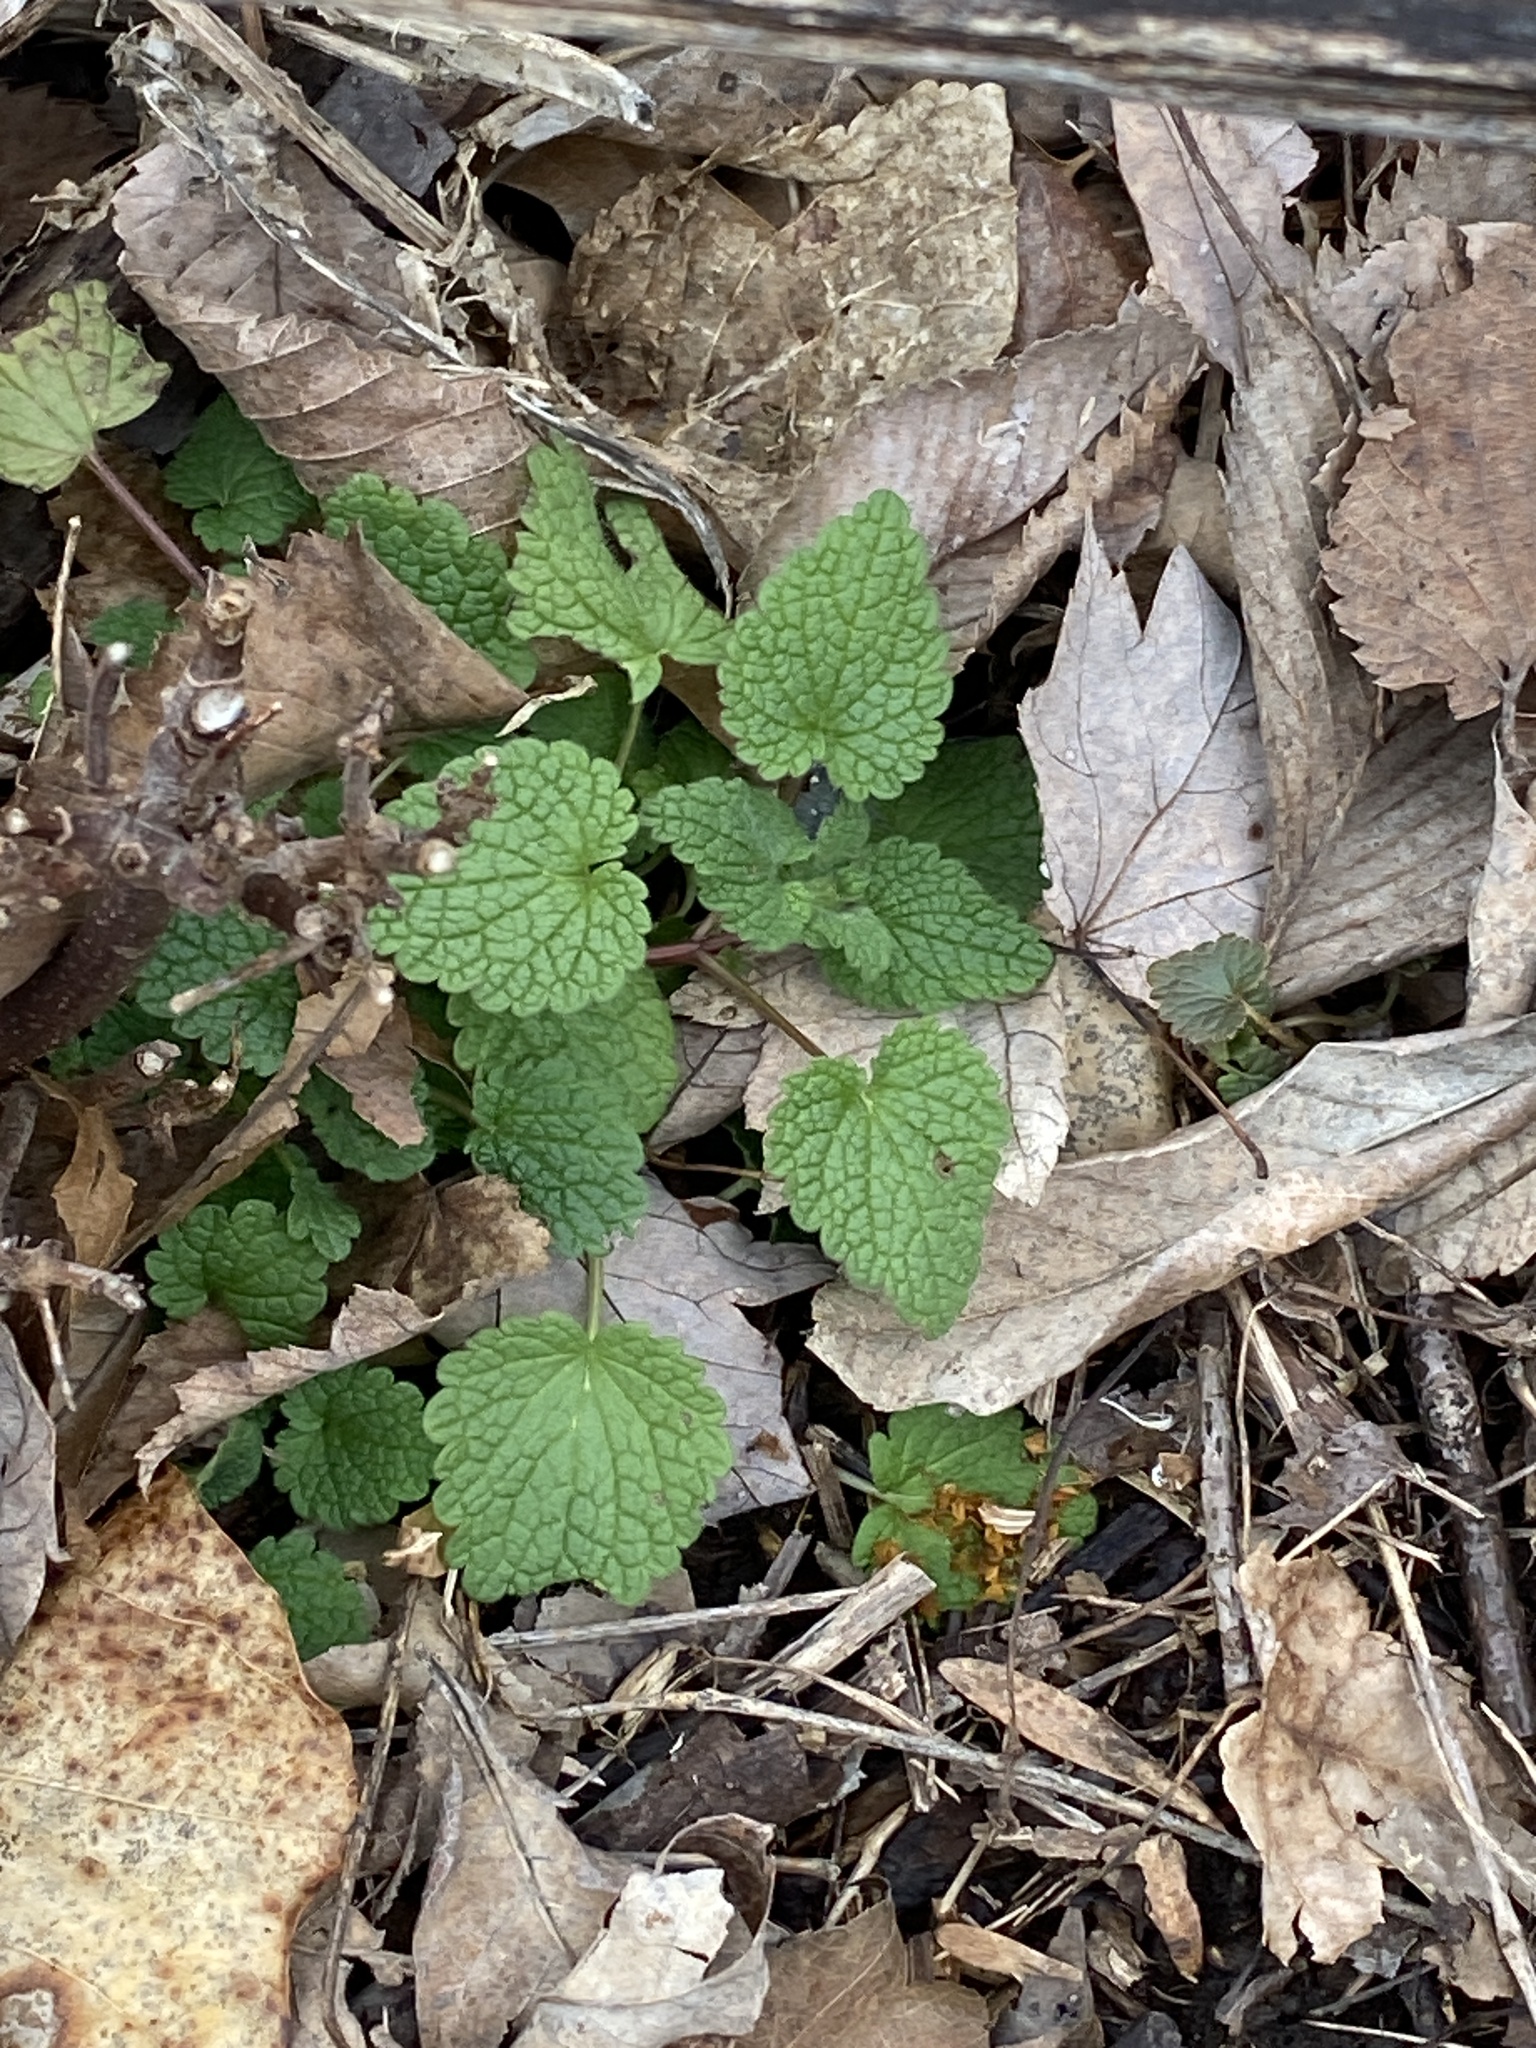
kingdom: Plantae
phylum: Tracheophyta
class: Magnoliopsida
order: Lamiales
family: Lamiaceae
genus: Lamium
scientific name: Lamium purpureum
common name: Red dead-nettle
